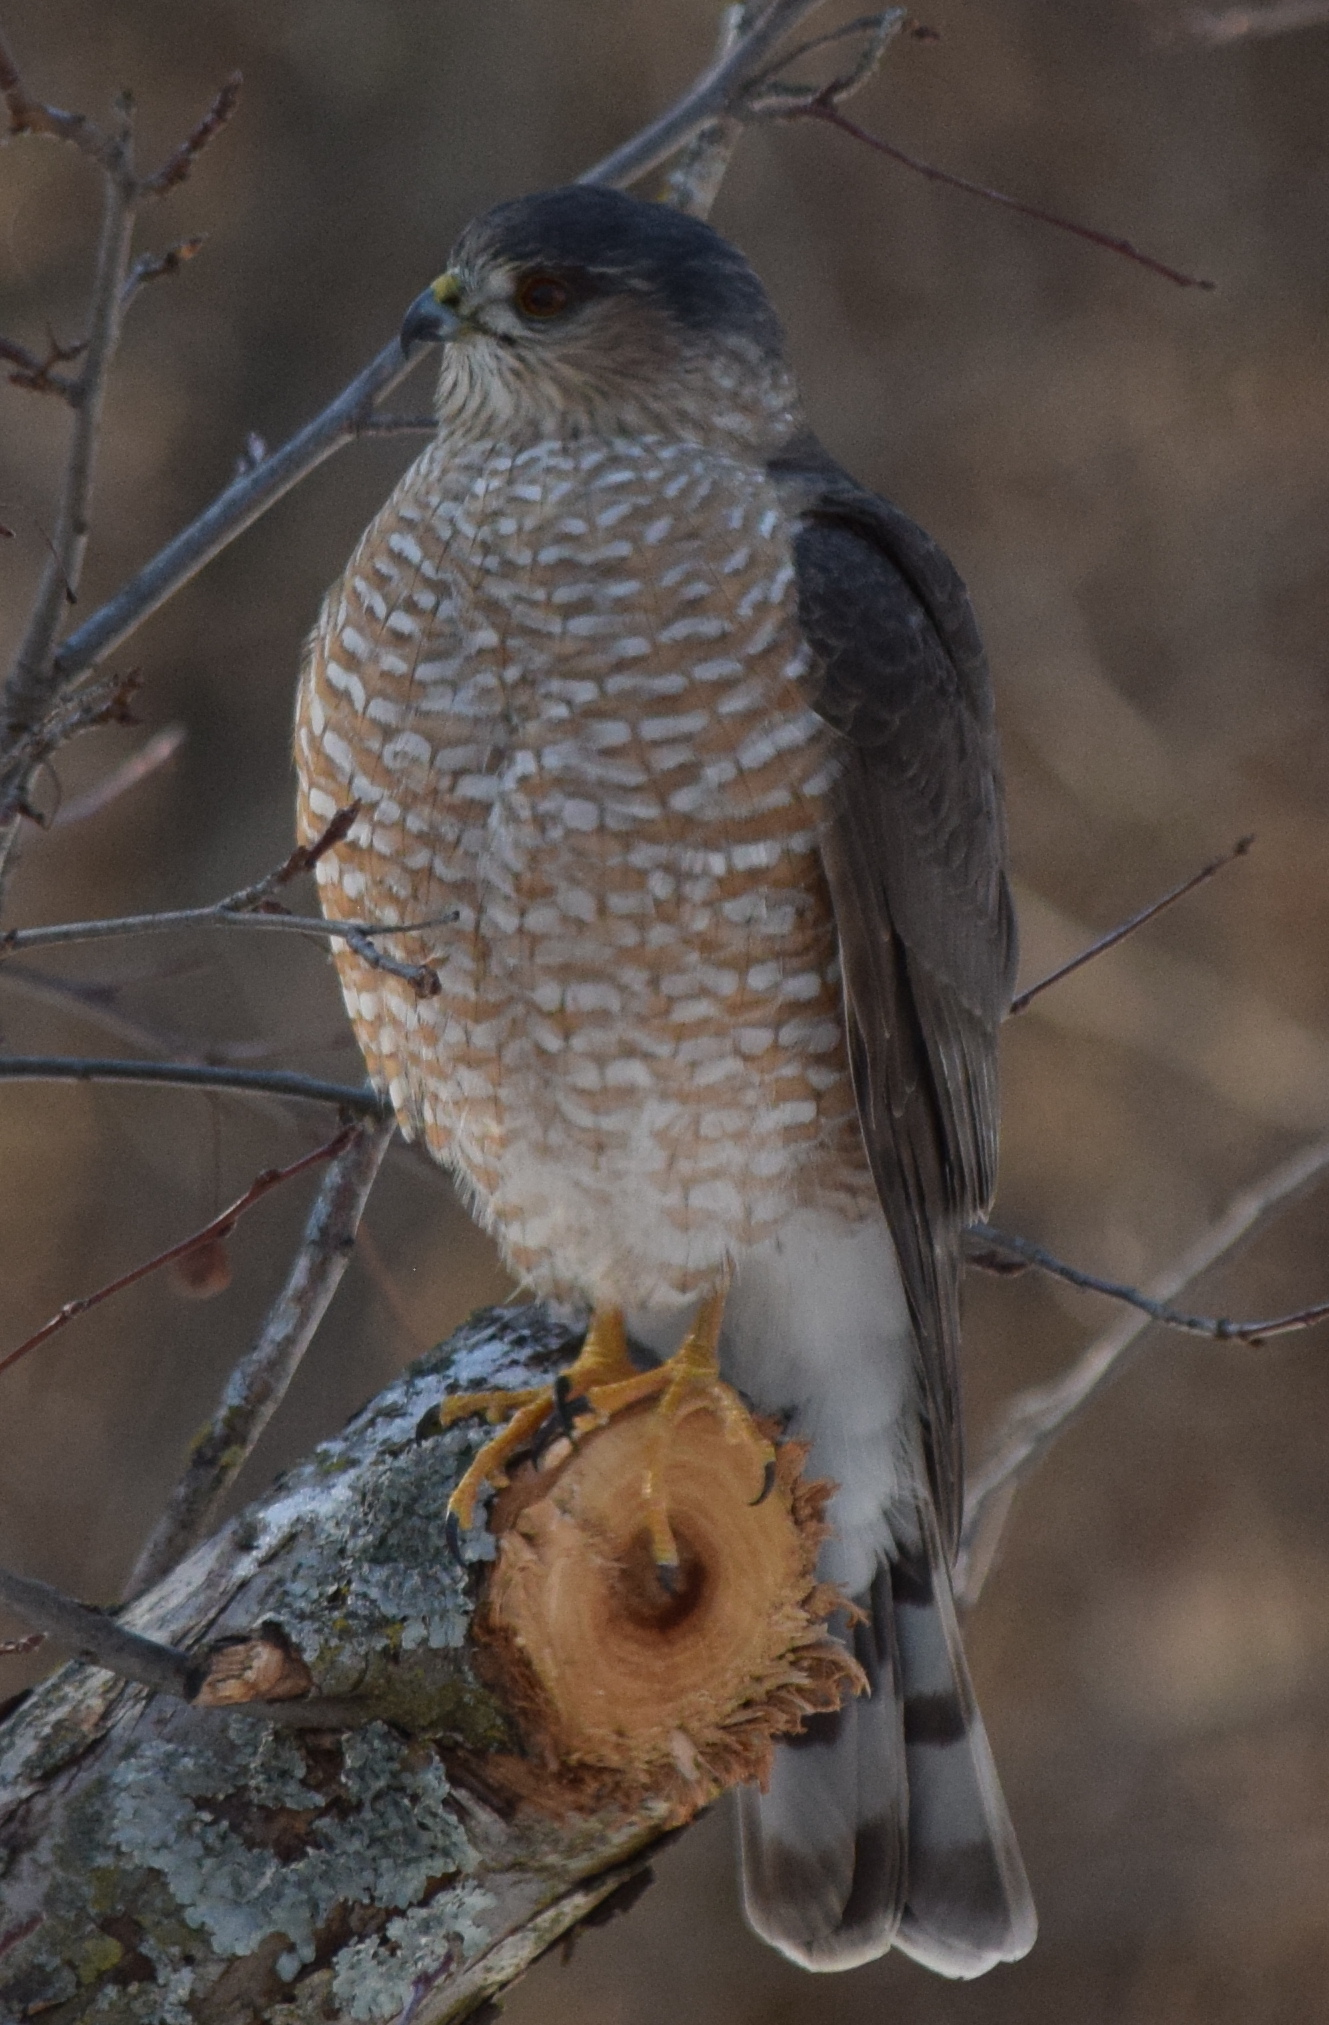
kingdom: Animalia
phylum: Chordata
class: Aves
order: Accipitriformes
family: Accipitridae
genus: Accipiter
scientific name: Accipiter striatus
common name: Sharp-shinned hawk
